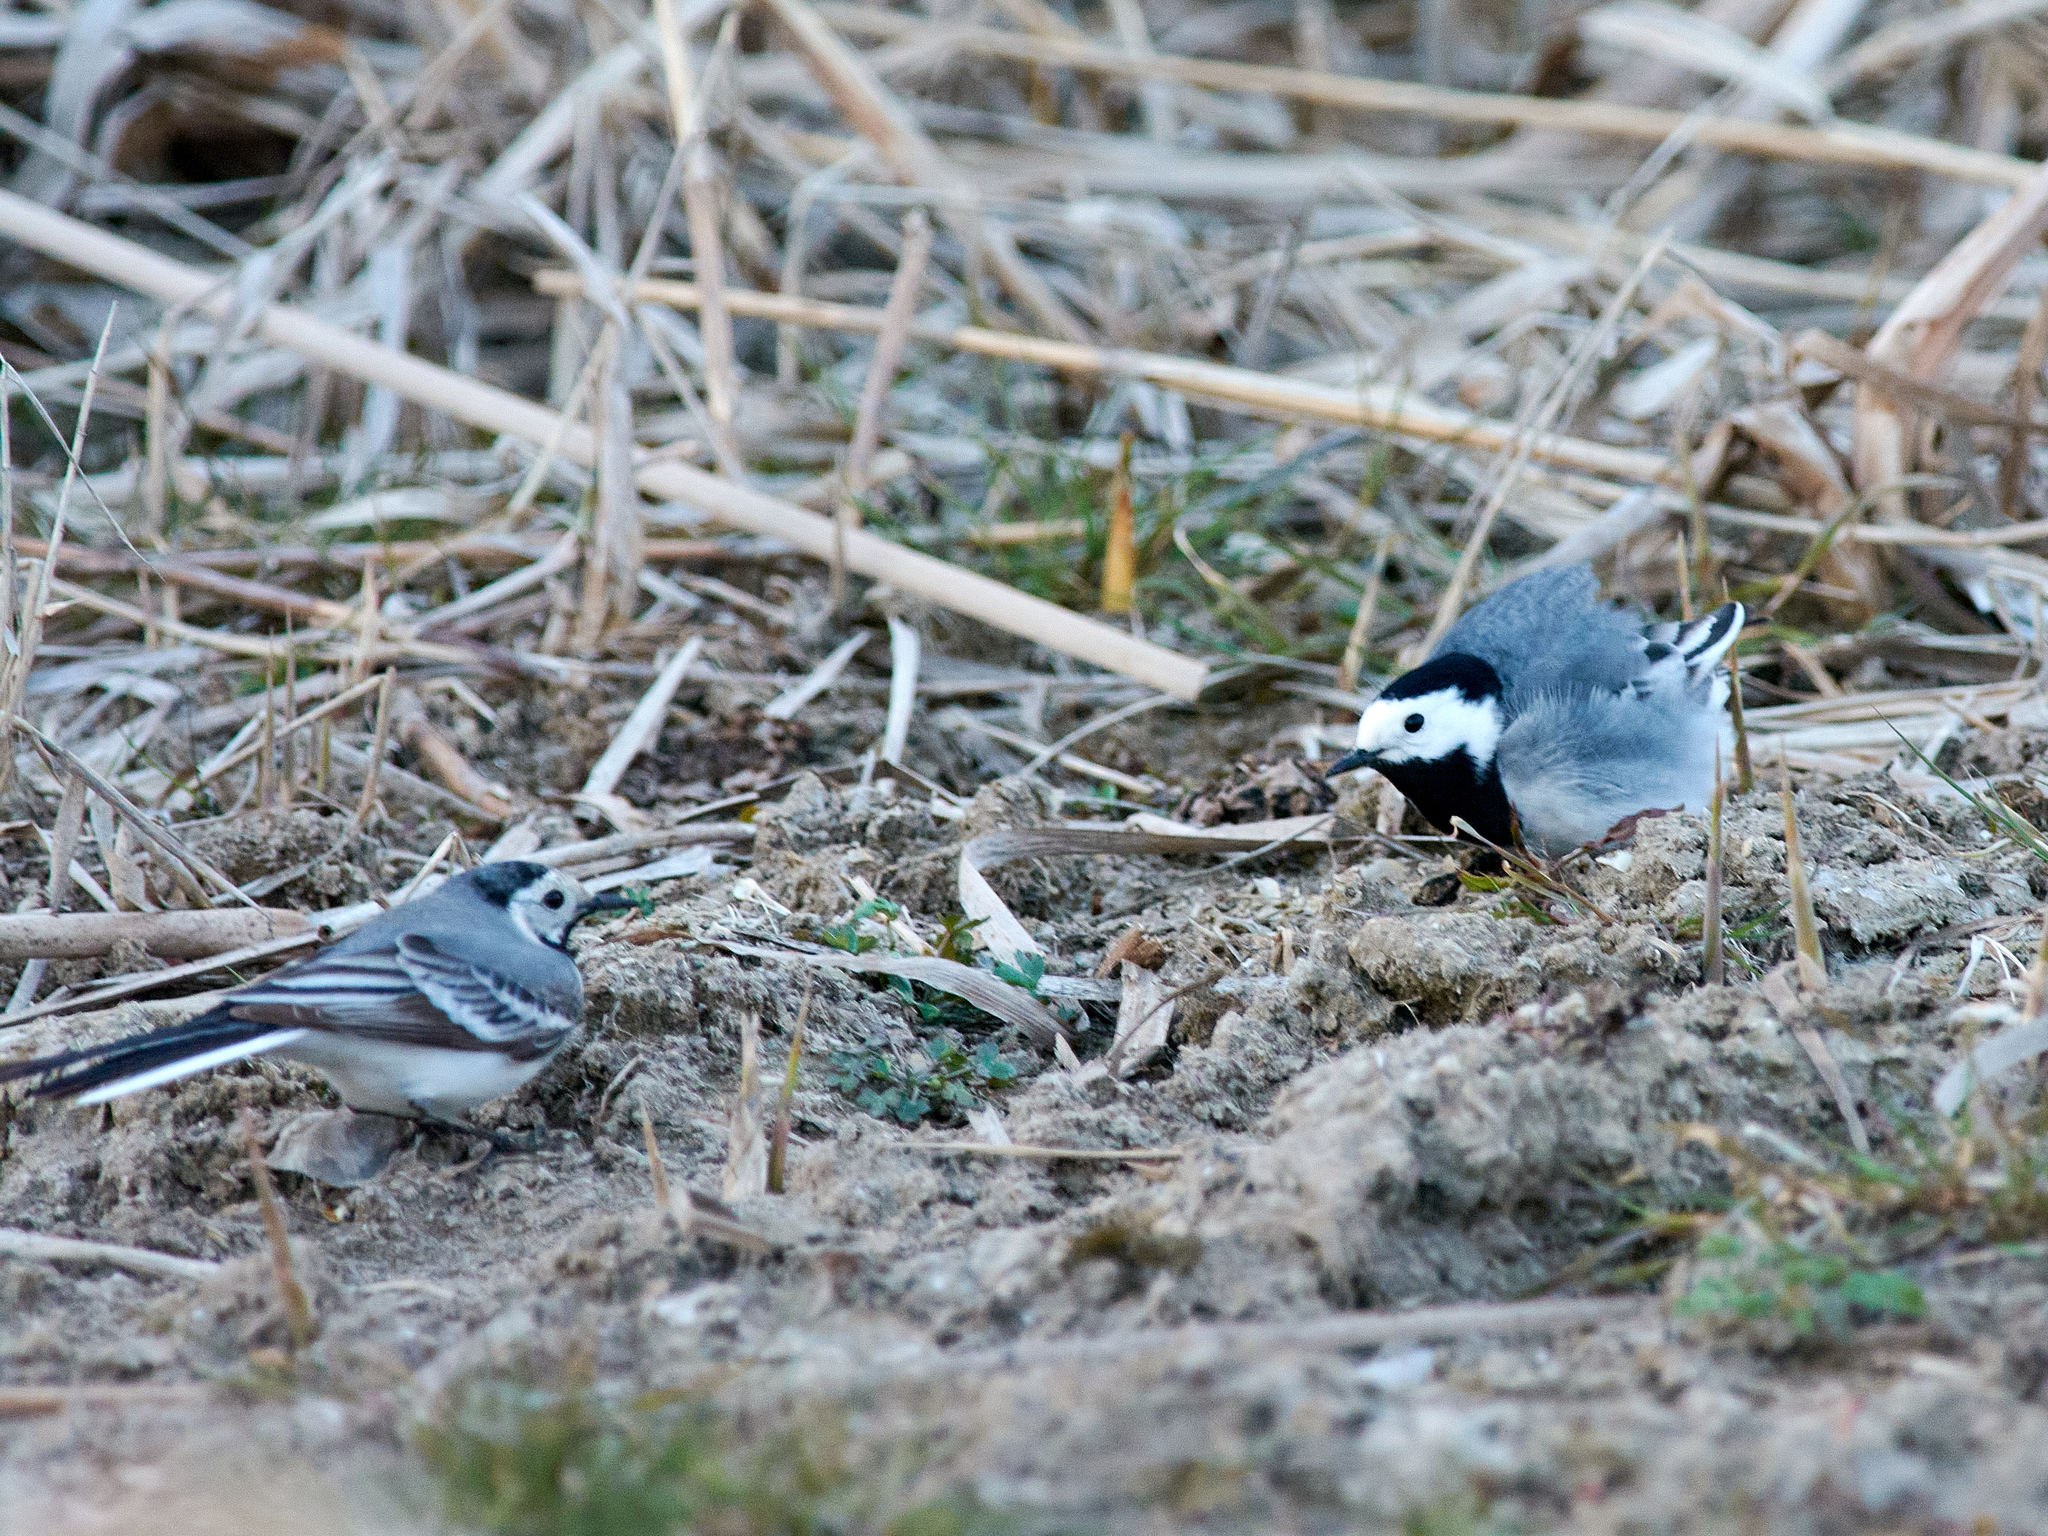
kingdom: Animalia
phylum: Chordata
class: Aves
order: Passeriformes
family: Motacillidae
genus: Motacilla
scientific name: Motacilla alba
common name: White wagtail
